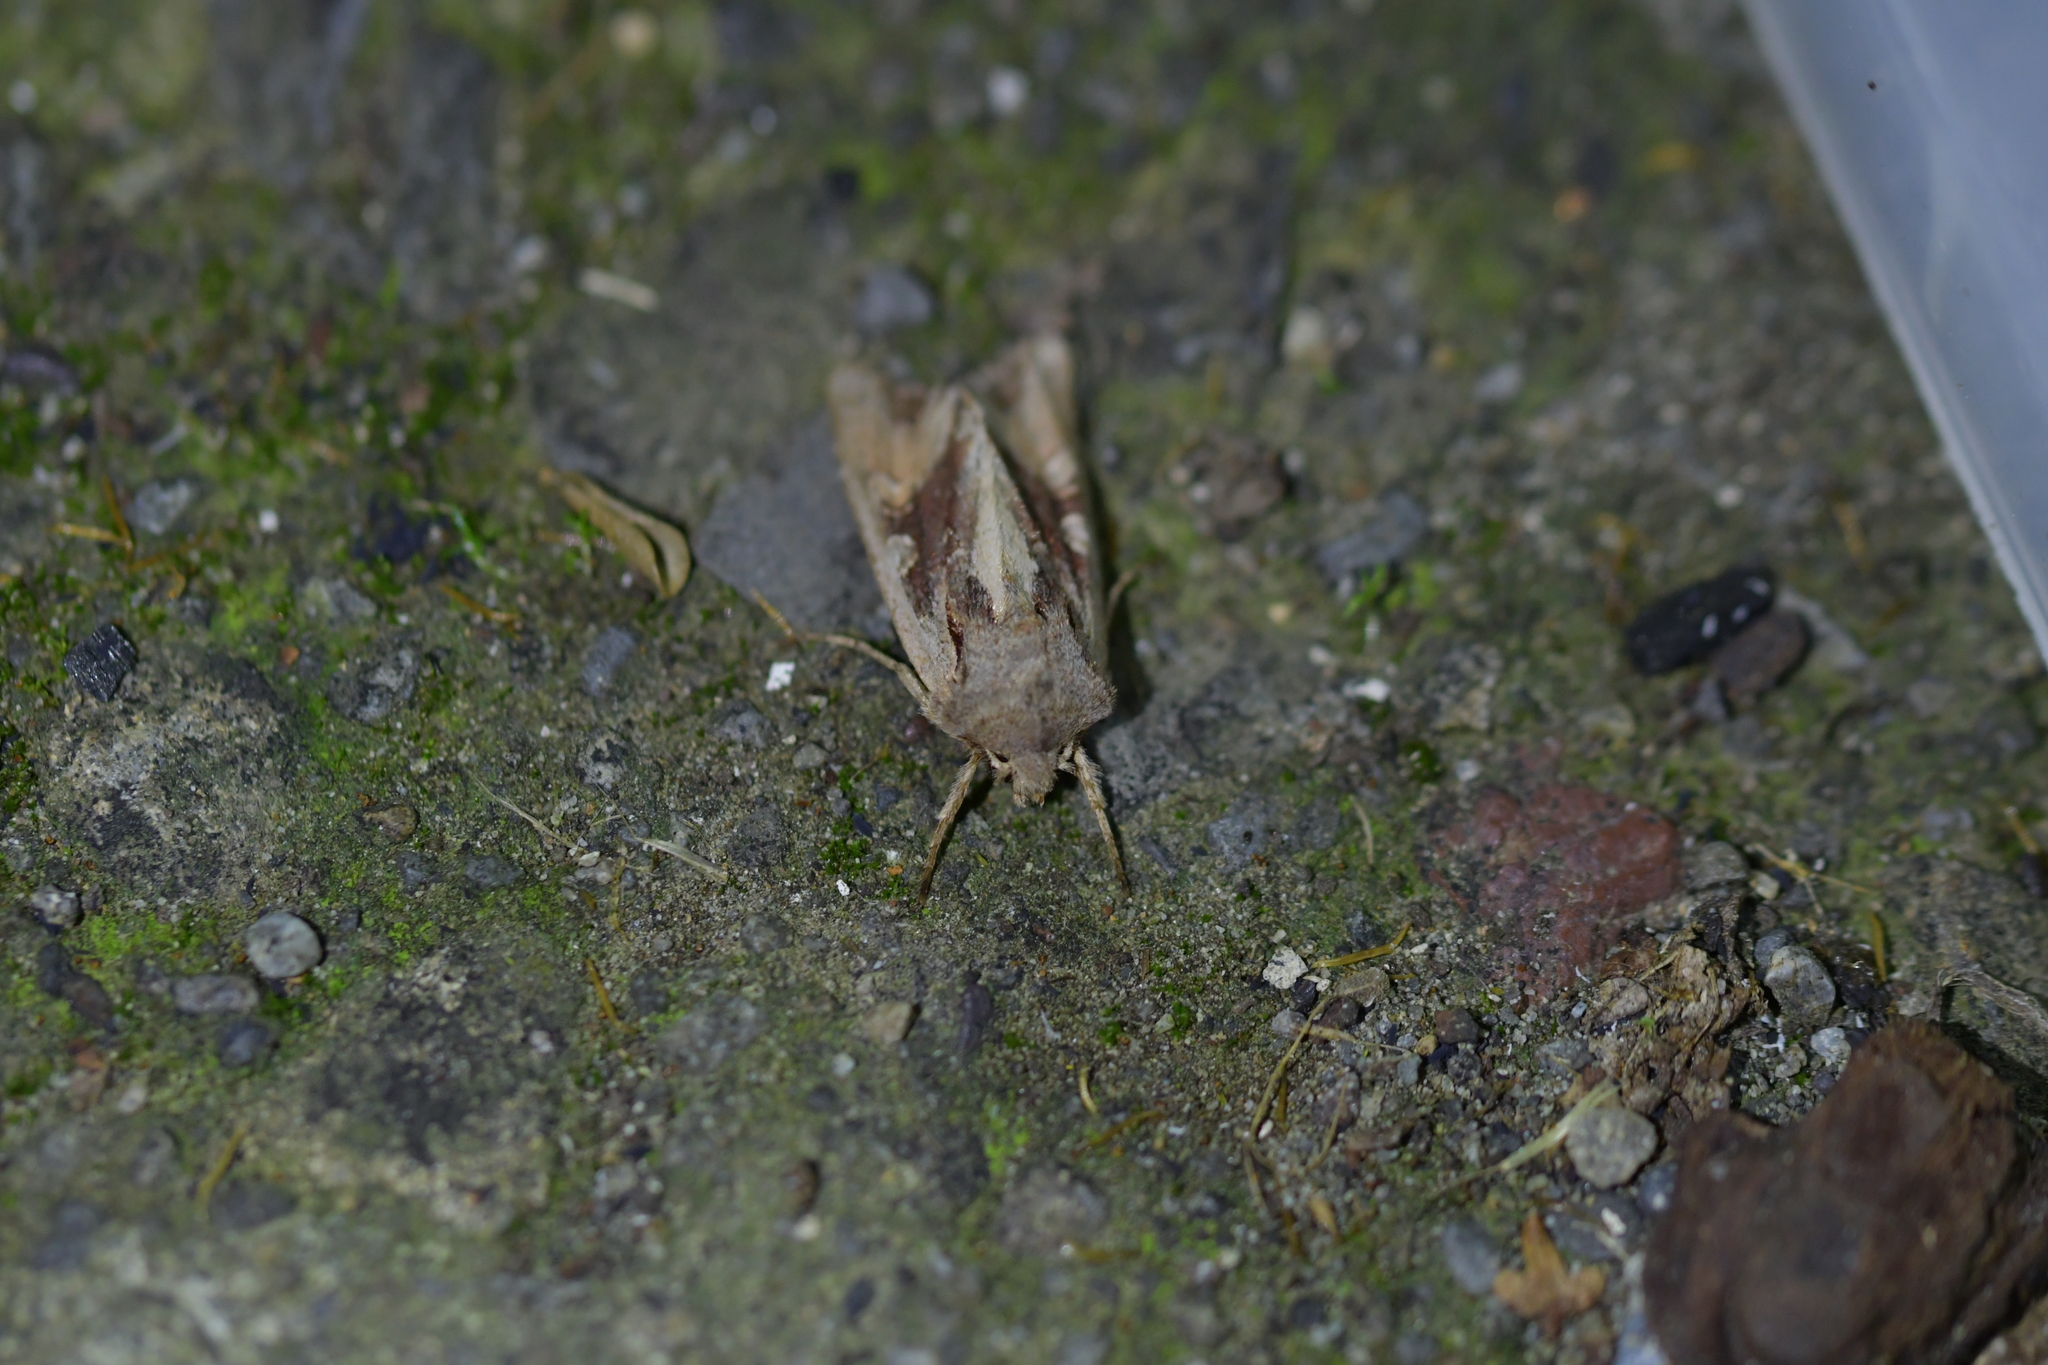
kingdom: Animalia
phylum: Arthropoda
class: Insecta
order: Lepidoptera
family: Noctuidae
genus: Ichneutica
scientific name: Ichneutica
